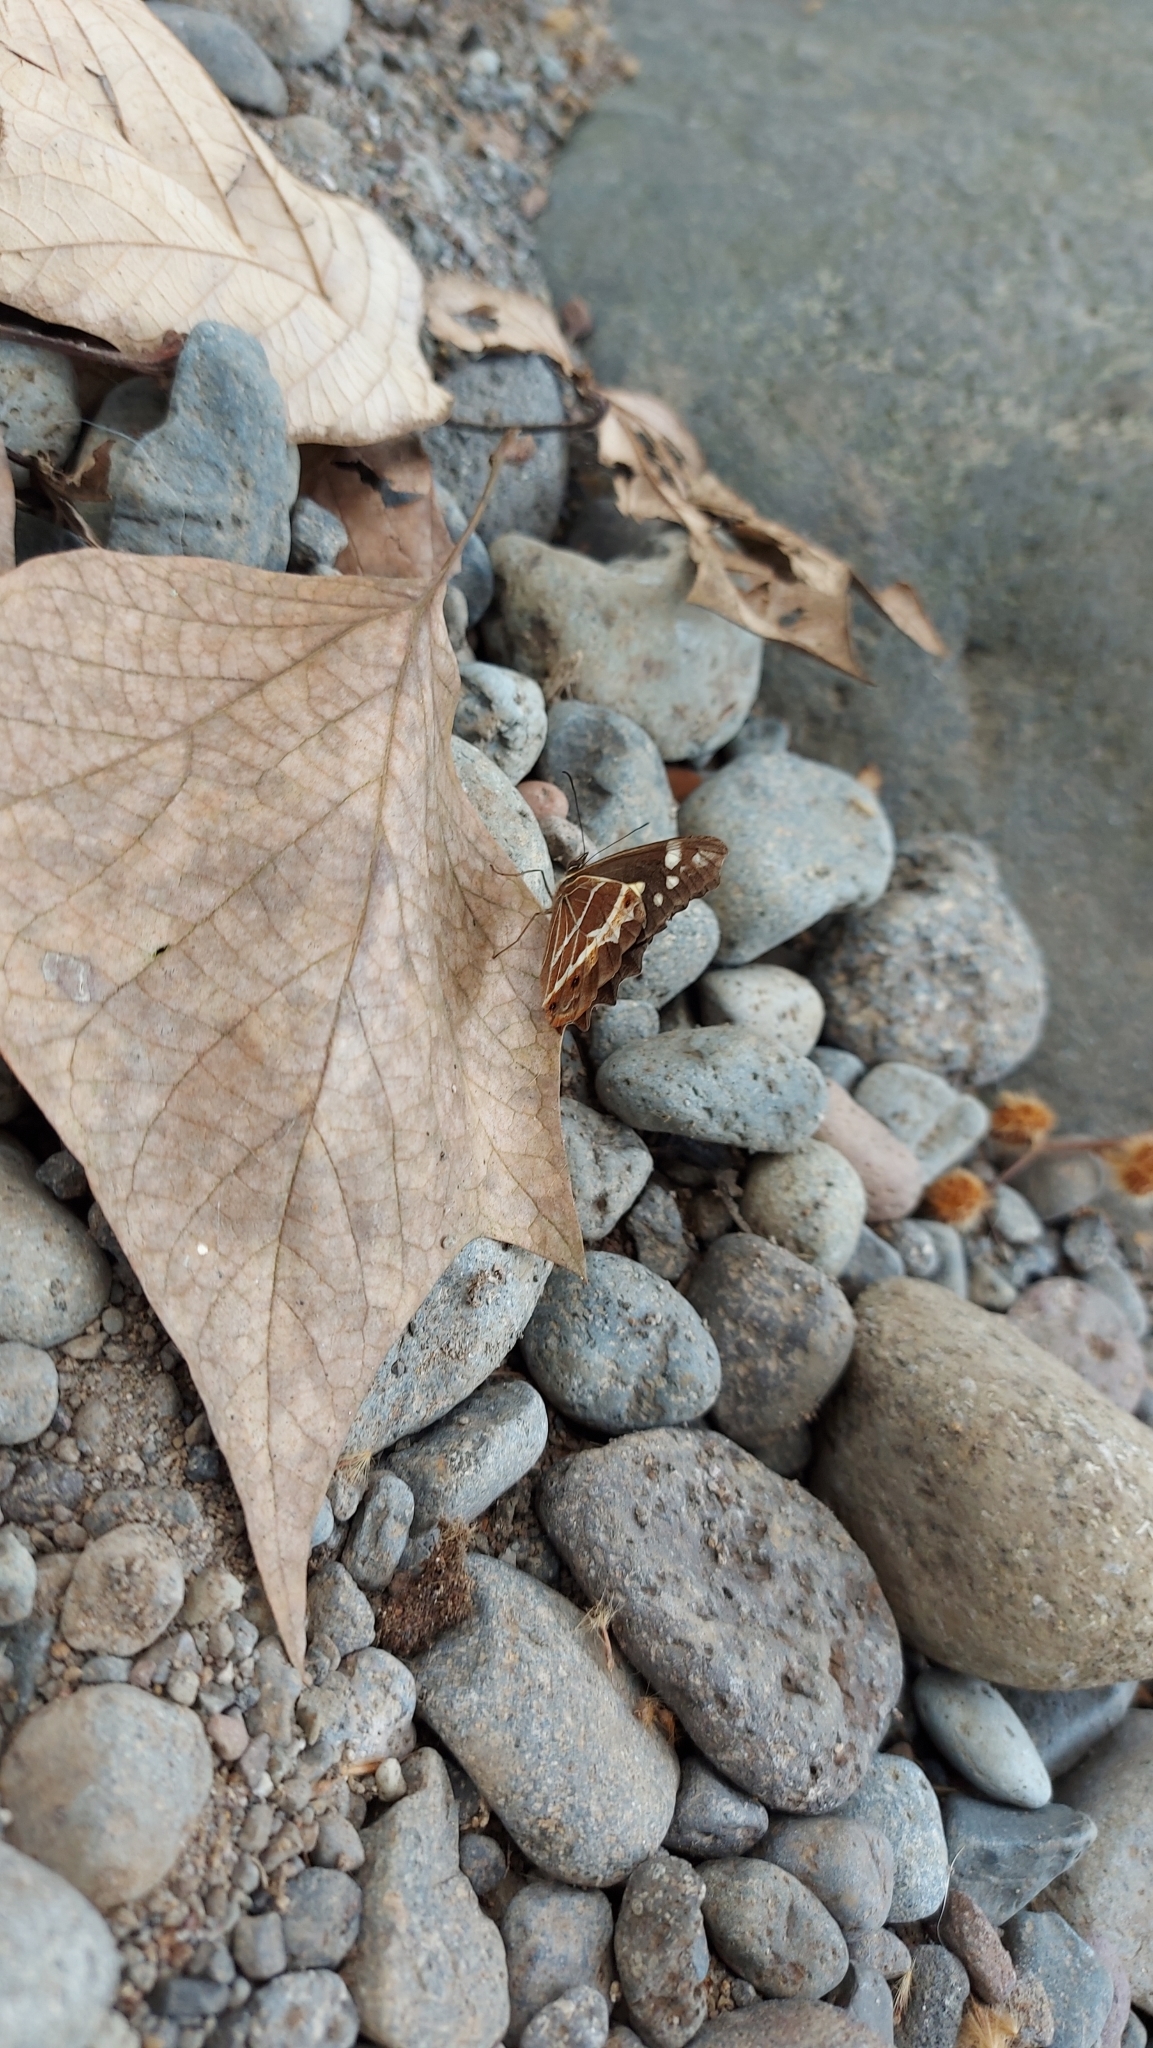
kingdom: Animalia
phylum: Arthropoda
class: Insecta
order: Lepidoptera
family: Nymphalidae
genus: Oxeoschistus
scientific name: Oxeoschistus tauropolis
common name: Starred oxeo
